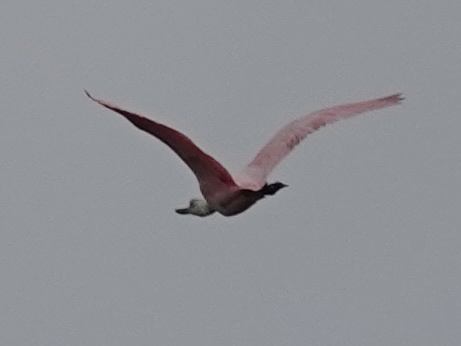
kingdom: Animalia
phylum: Chordata
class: Aves
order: Pelecaniformes
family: Threskiornithidae
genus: Platalea
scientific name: Platalea ajaja
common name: Roseate spoonbill
